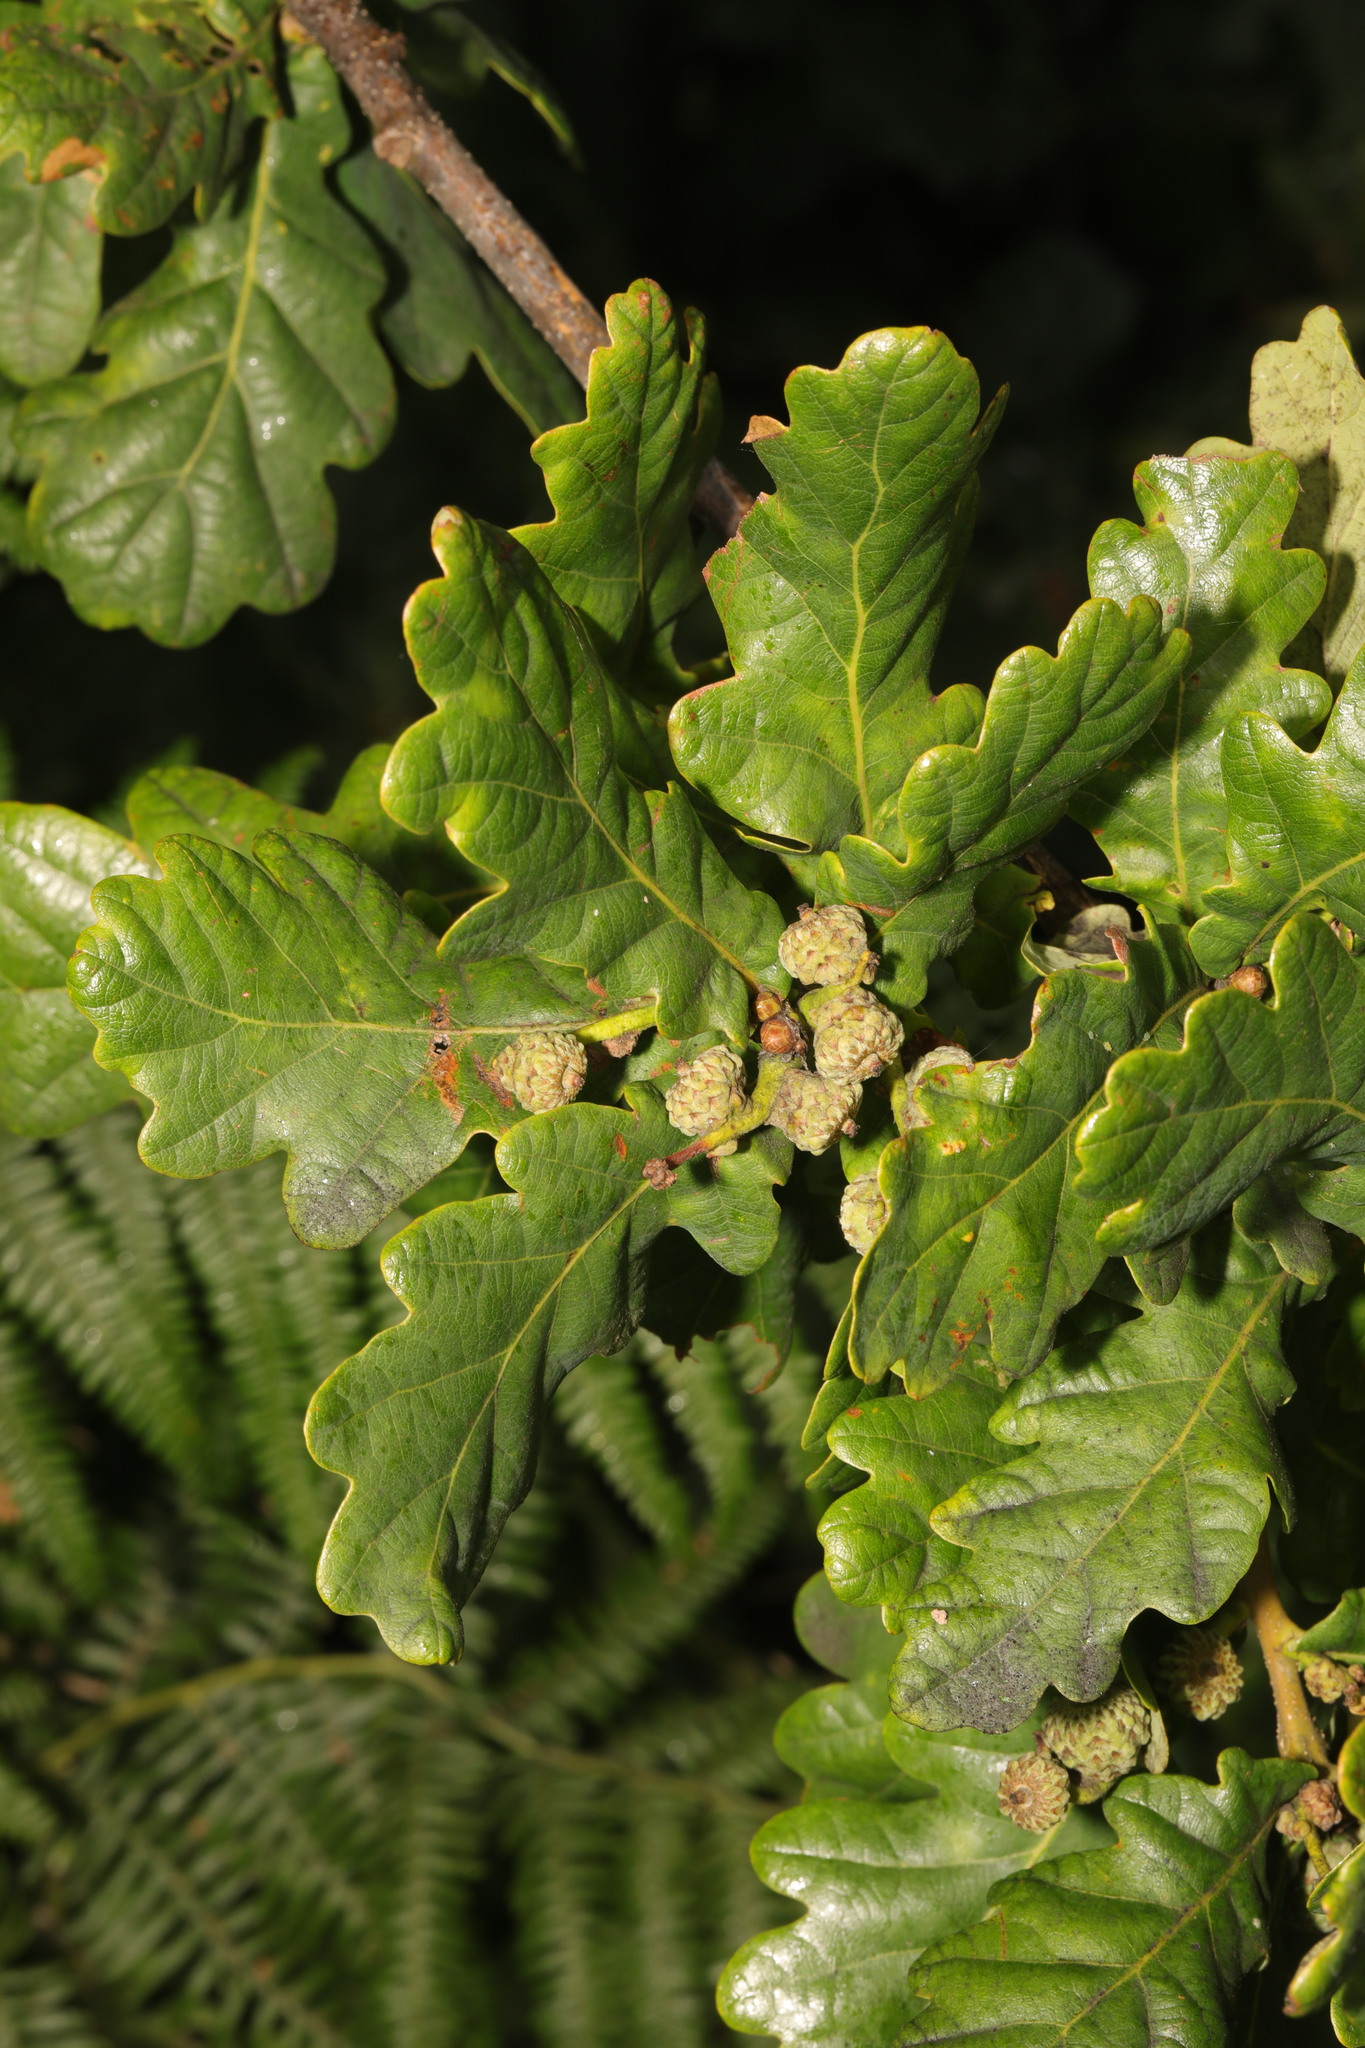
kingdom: Plantae
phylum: Tracheophyta
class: Magnoliopsida
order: Fagales
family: Fagaceae
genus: Quercus
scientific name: Quercus robur
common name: Pedunculate oak
